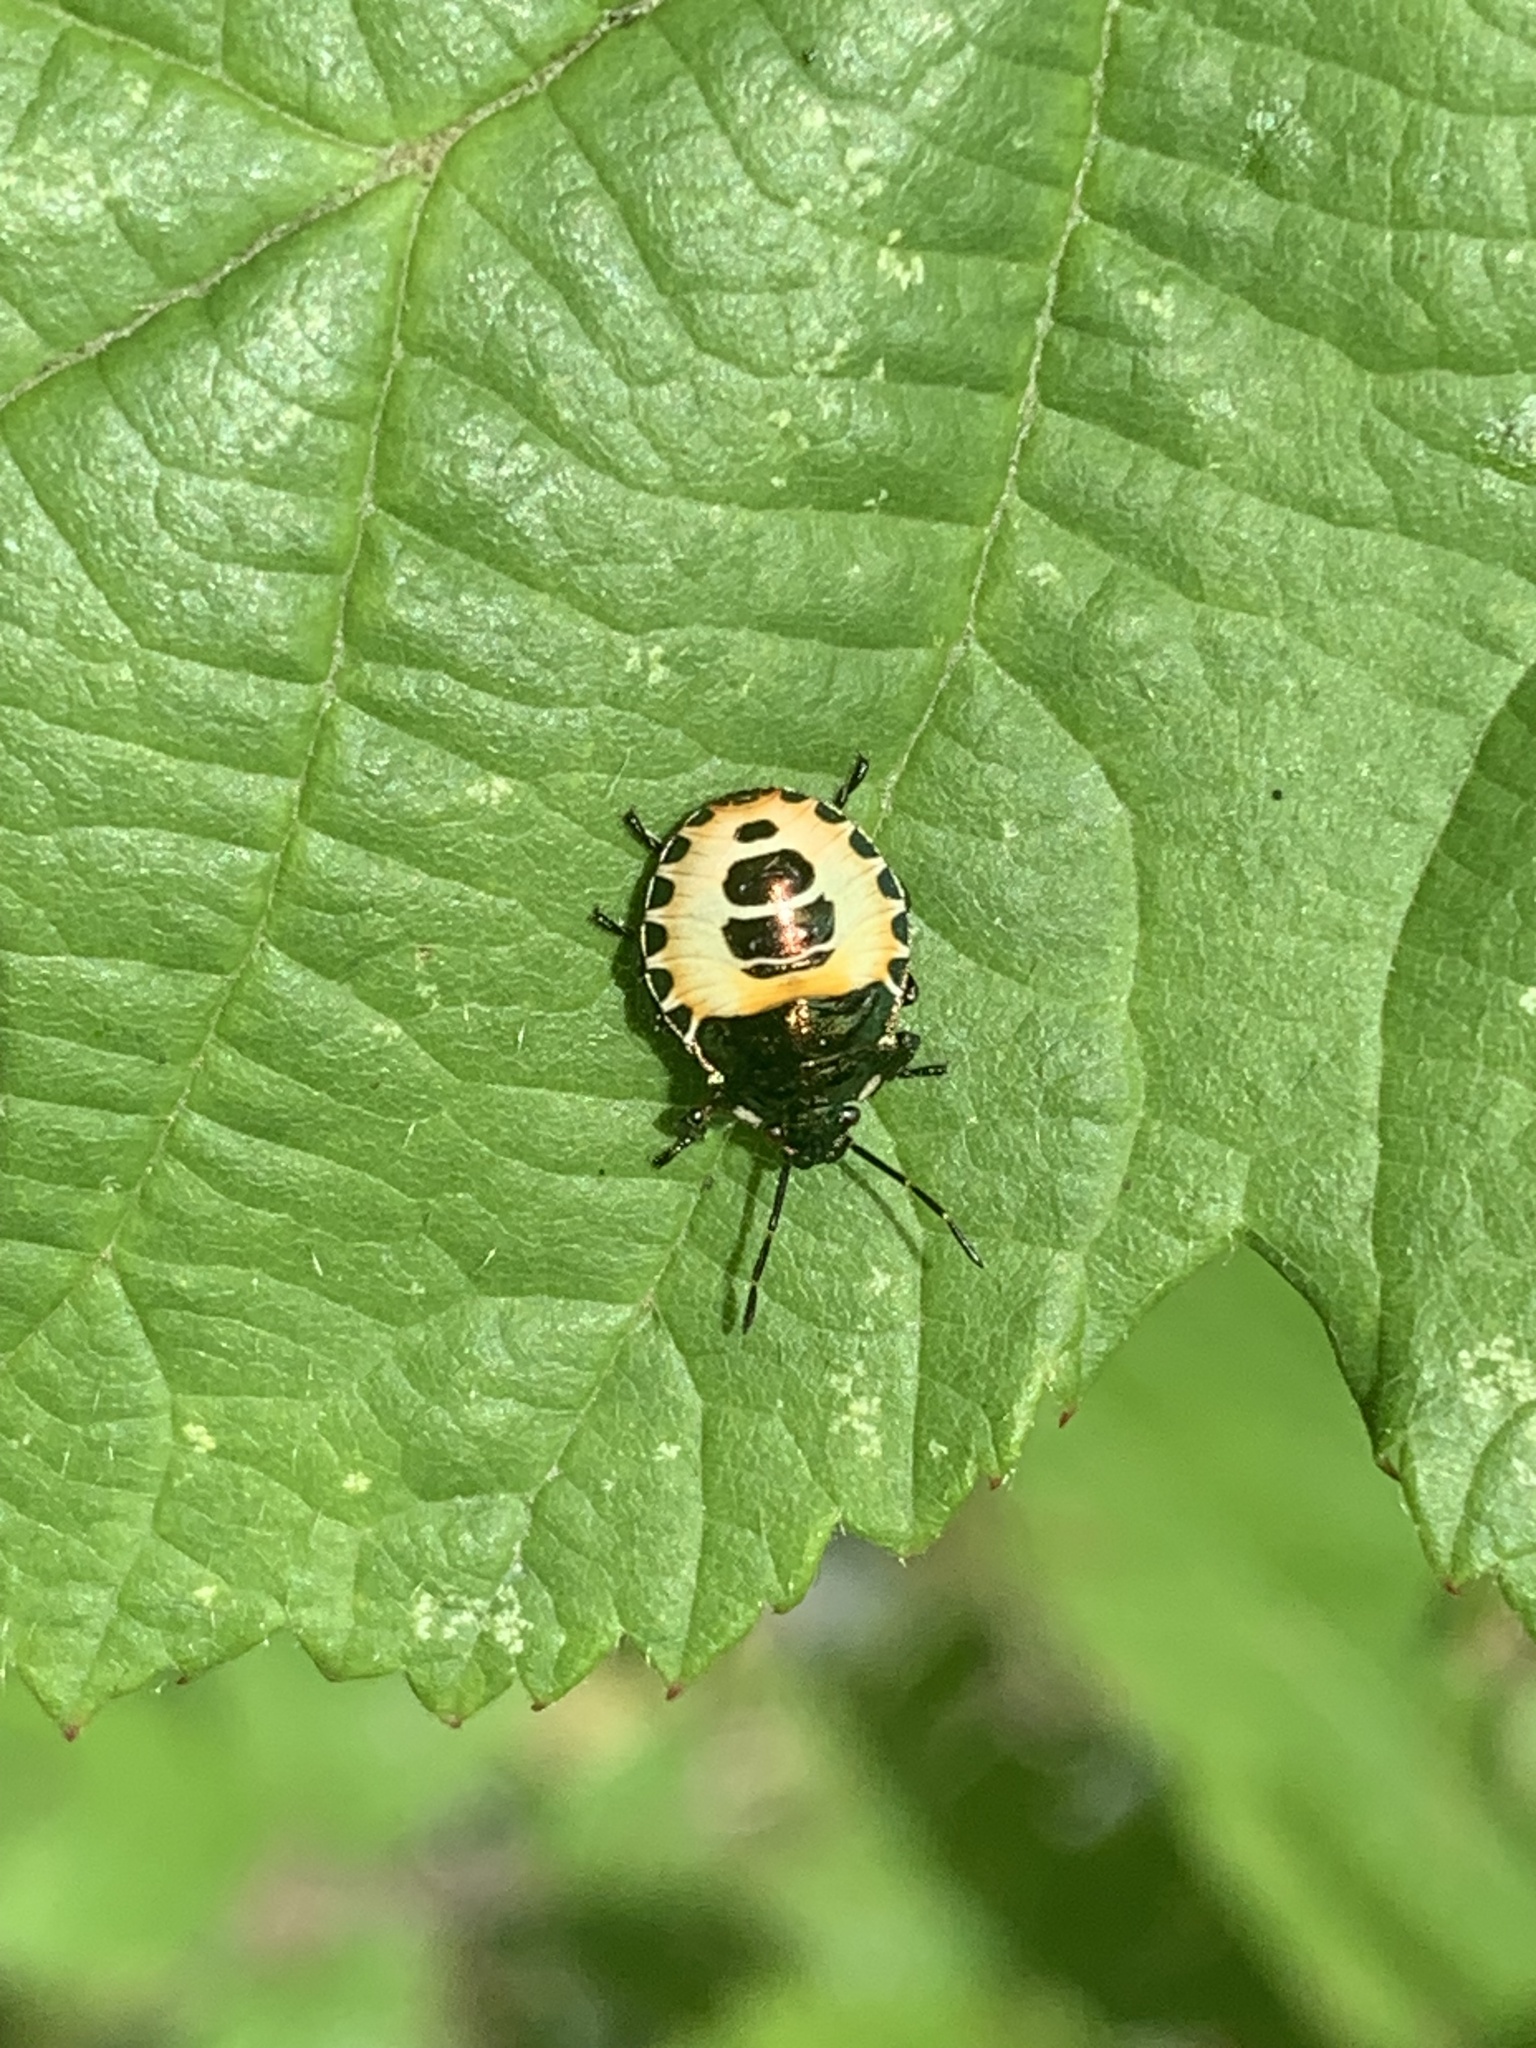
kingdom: Animalia
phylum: Arthropoda
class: Insecta
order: Hemiptera
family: Pentatomidae
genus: Troilus
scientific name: Troilus luridus
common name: Bronze shieldbug
